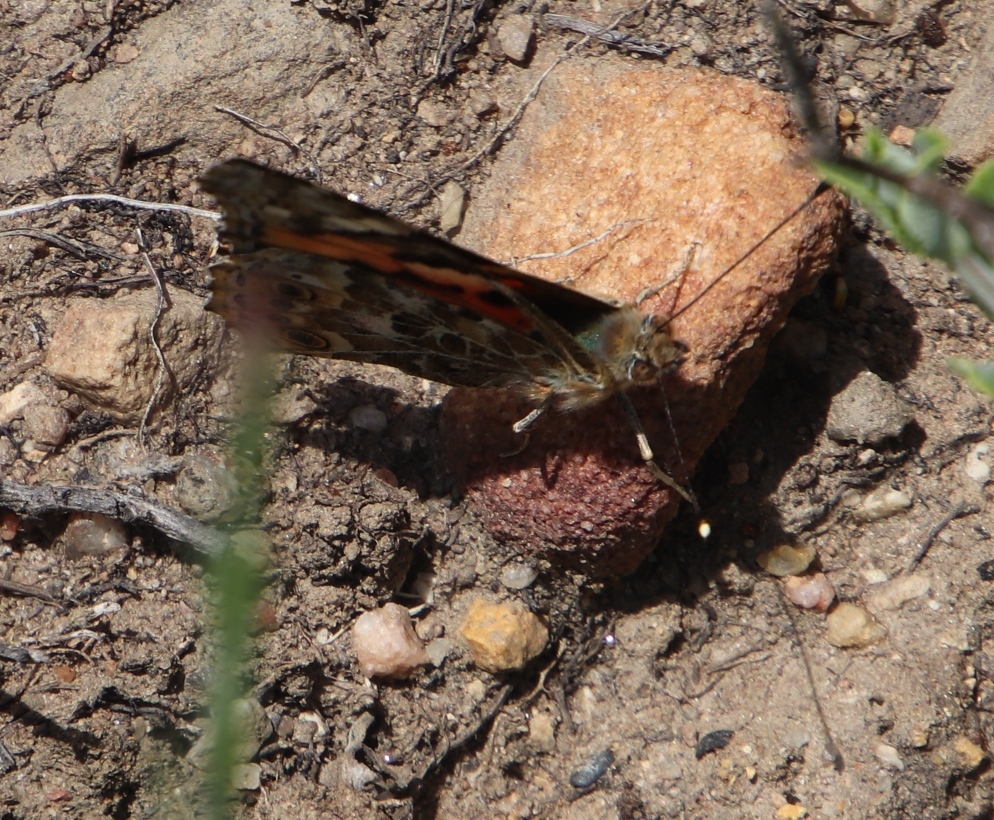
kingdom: Animalia
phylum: Arthropoda
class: Insecta
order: Lepidoptera
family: Nymphalidae
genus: Vanessa
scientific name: Vanessa cardui
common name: Painted lady
